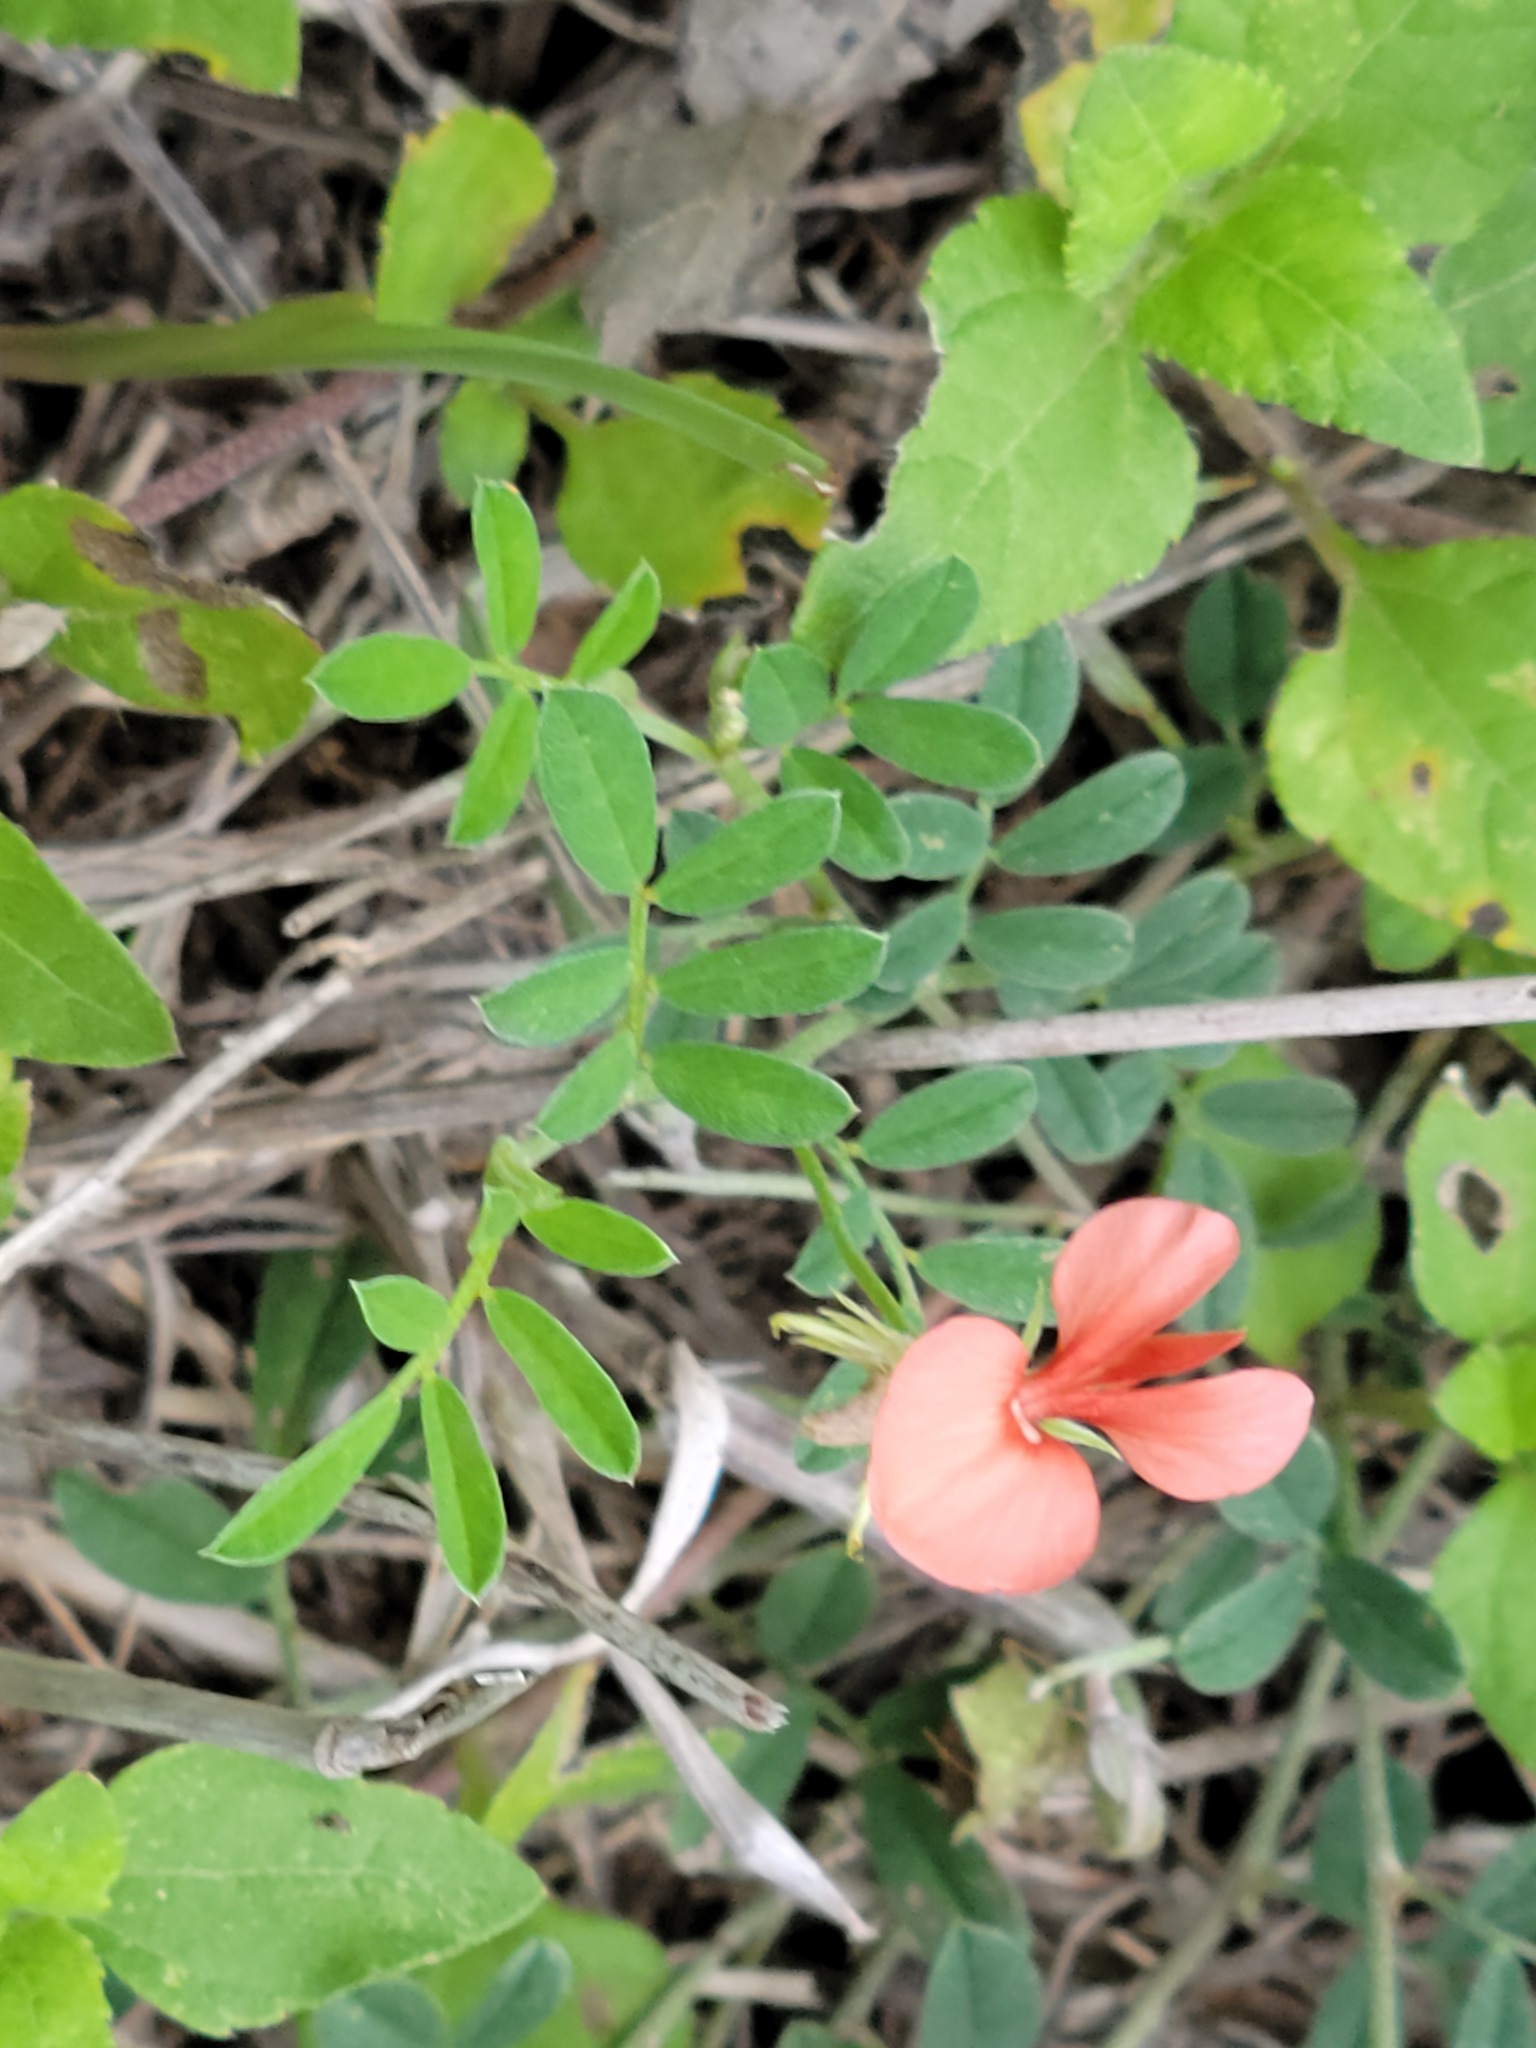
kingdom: Plantae
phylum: Tracheophyta
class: Magnoliopsida
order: Fabales
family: Fabaceae
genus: Indigofera
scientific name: Indigofera miniata
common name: Coast indigo
